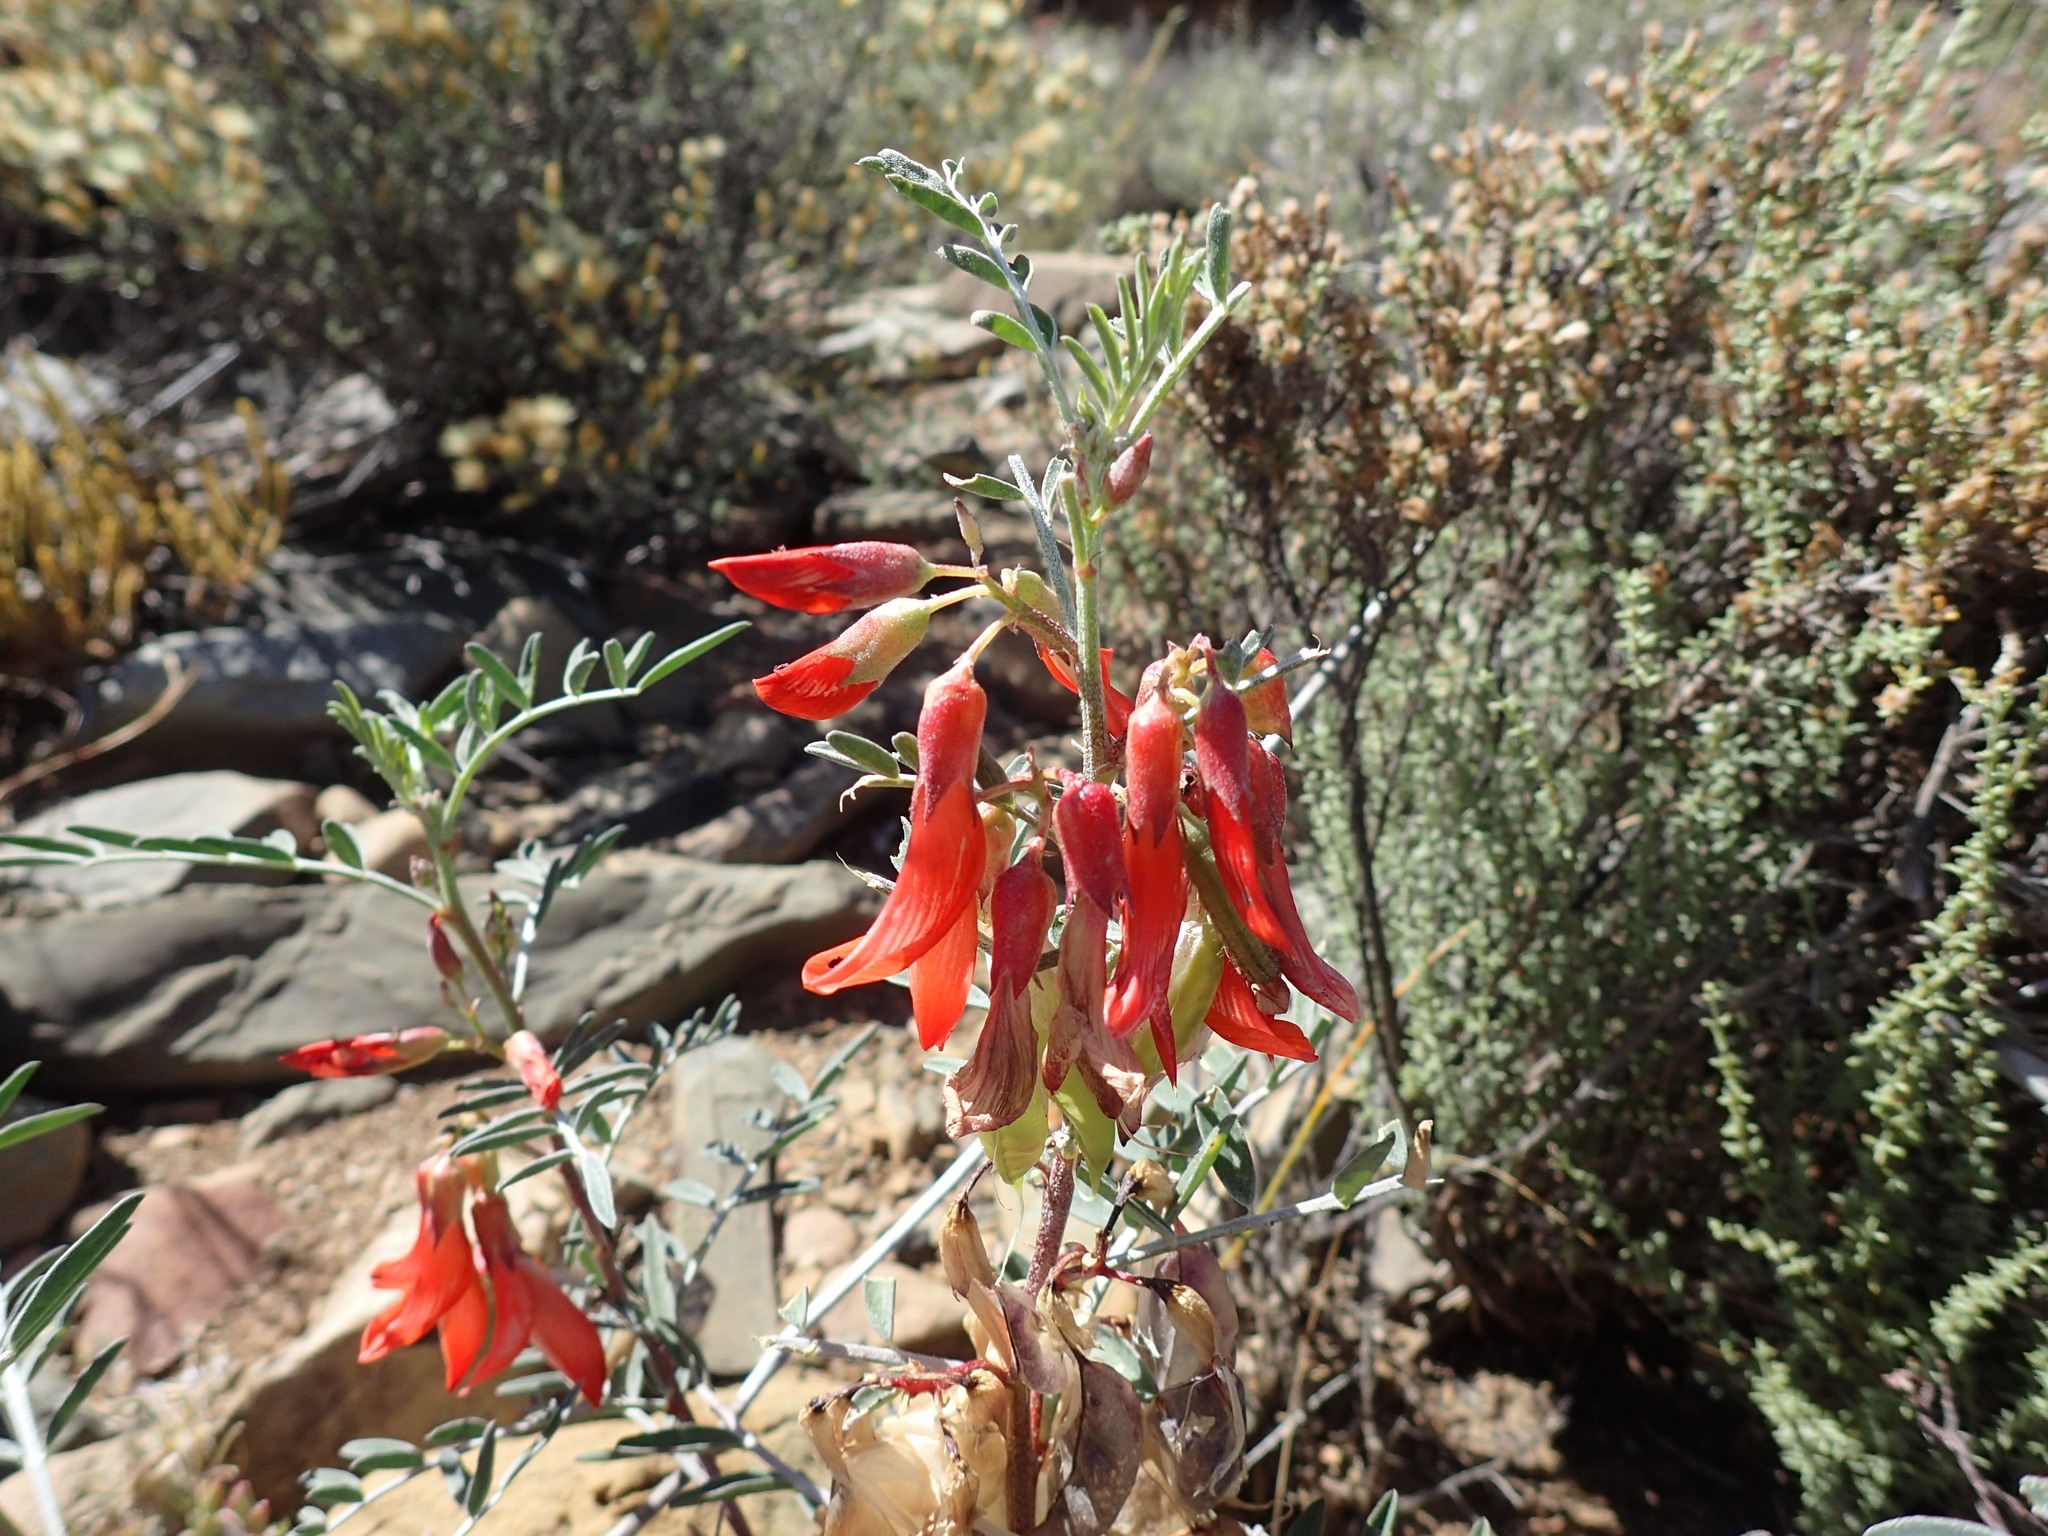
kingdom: Plantae
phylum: Tracheophyta
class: Magnoliopsida
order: Fabales
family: Fabaceae
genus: Lessertia
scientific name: Lessertia frutescens
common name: Balloon-pea
